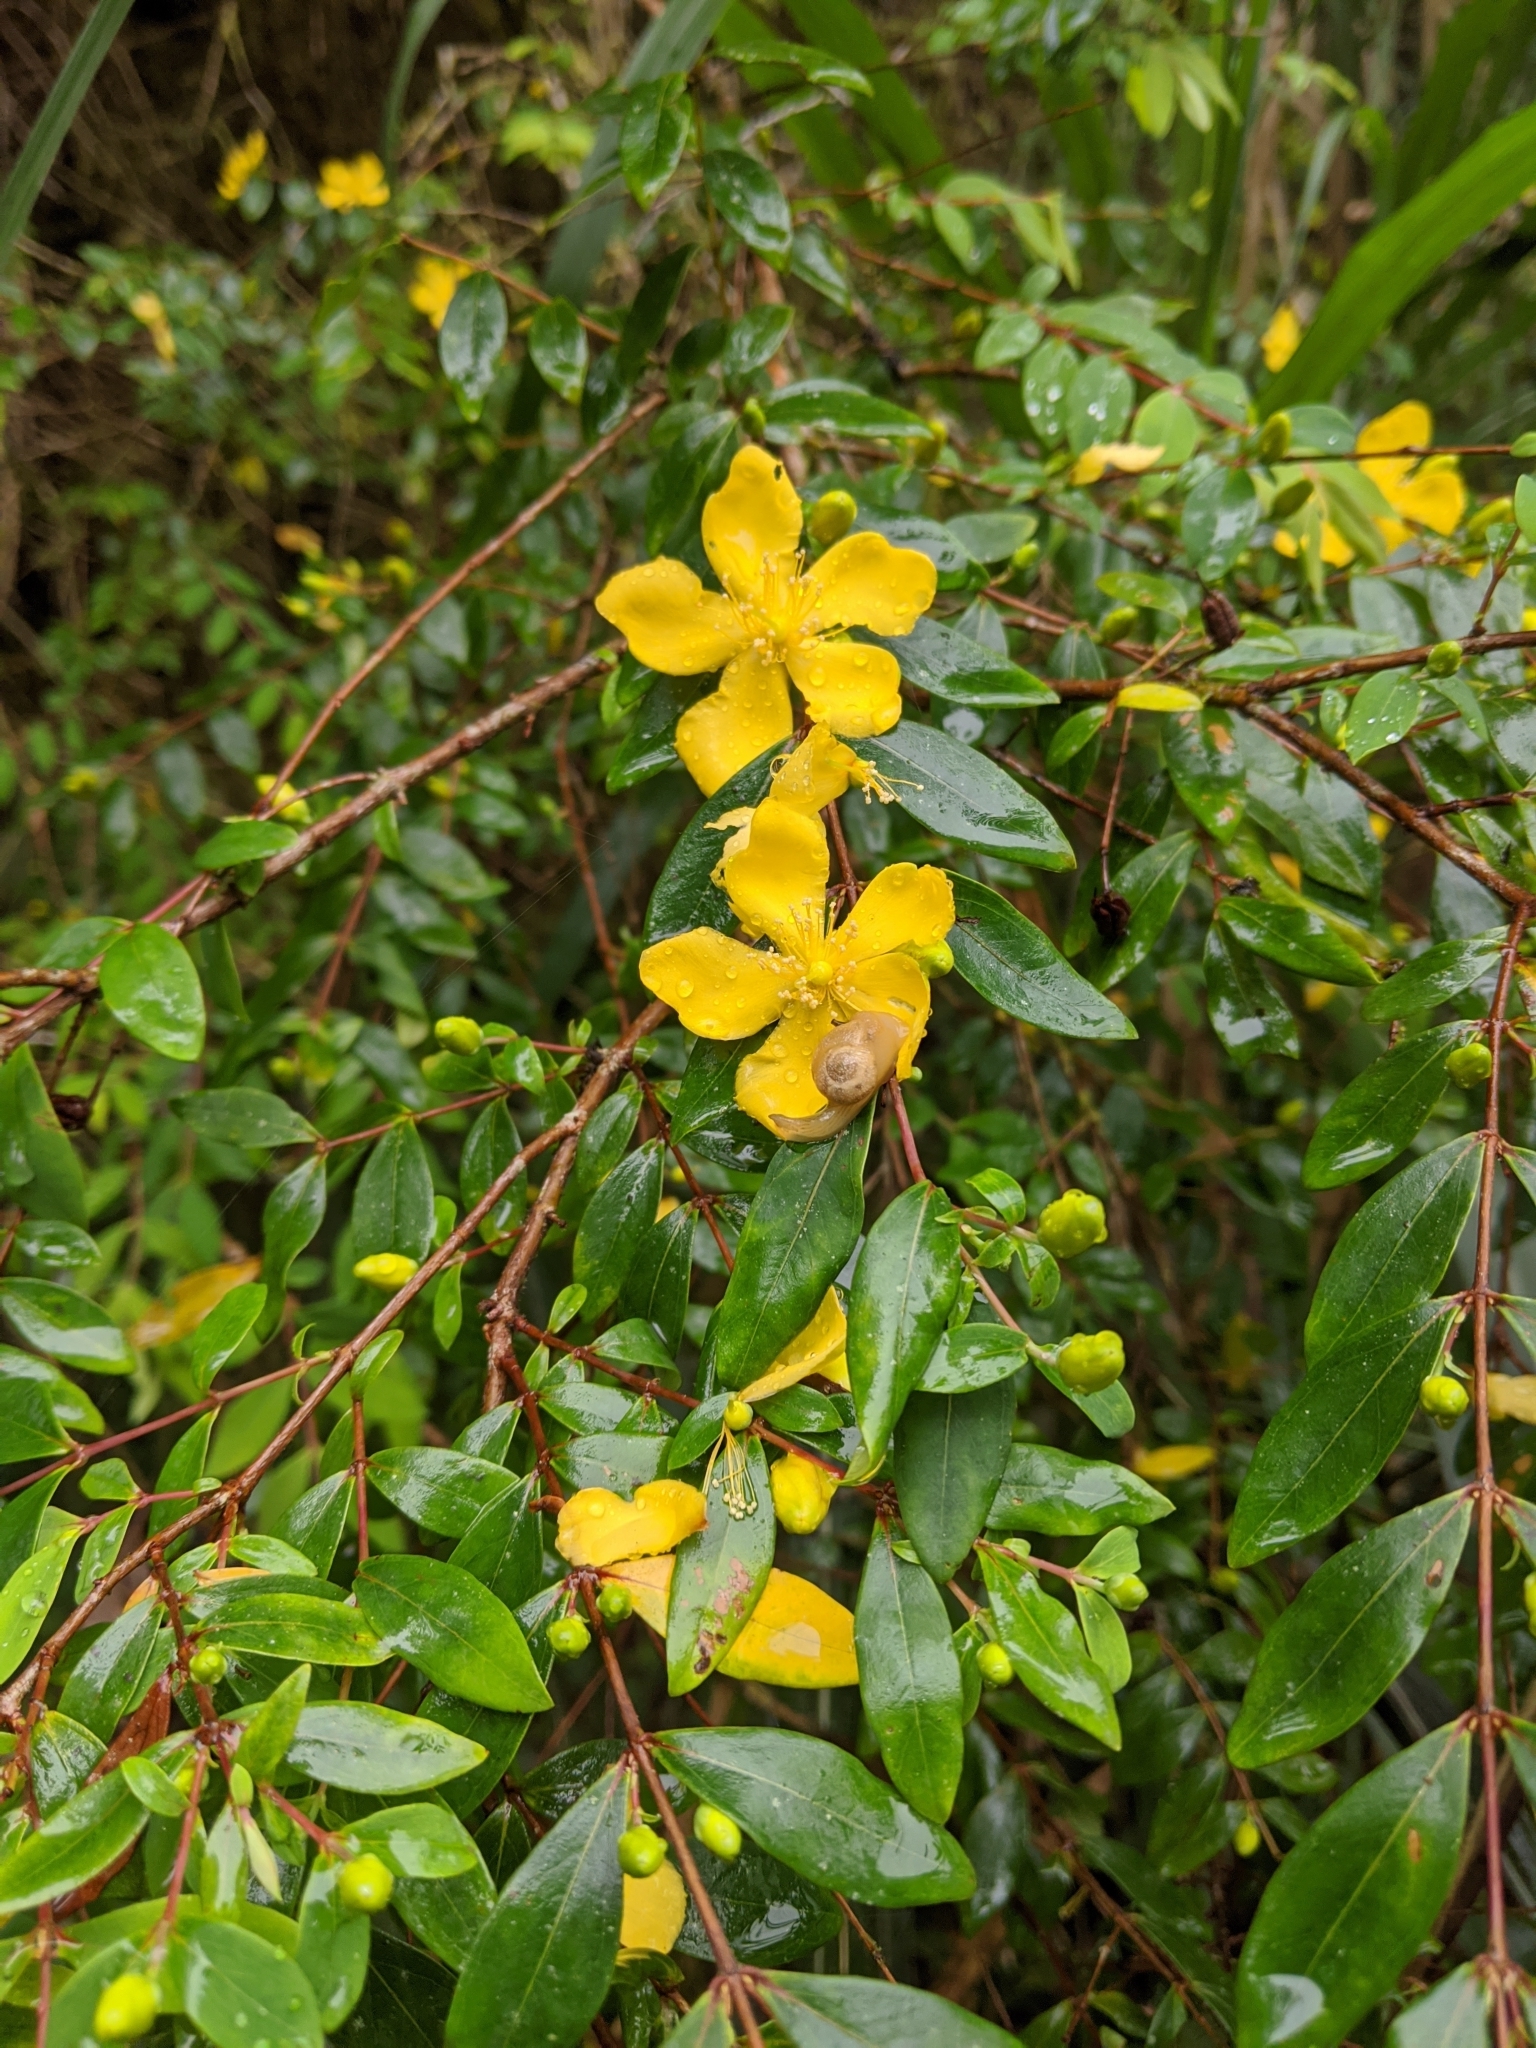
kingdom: Plantae
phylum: Tracheophyta
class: Magnoliopsida
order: Malpighiales
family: Hypericaceae
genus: Hypericum
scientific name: Hypericum geminiflorum
